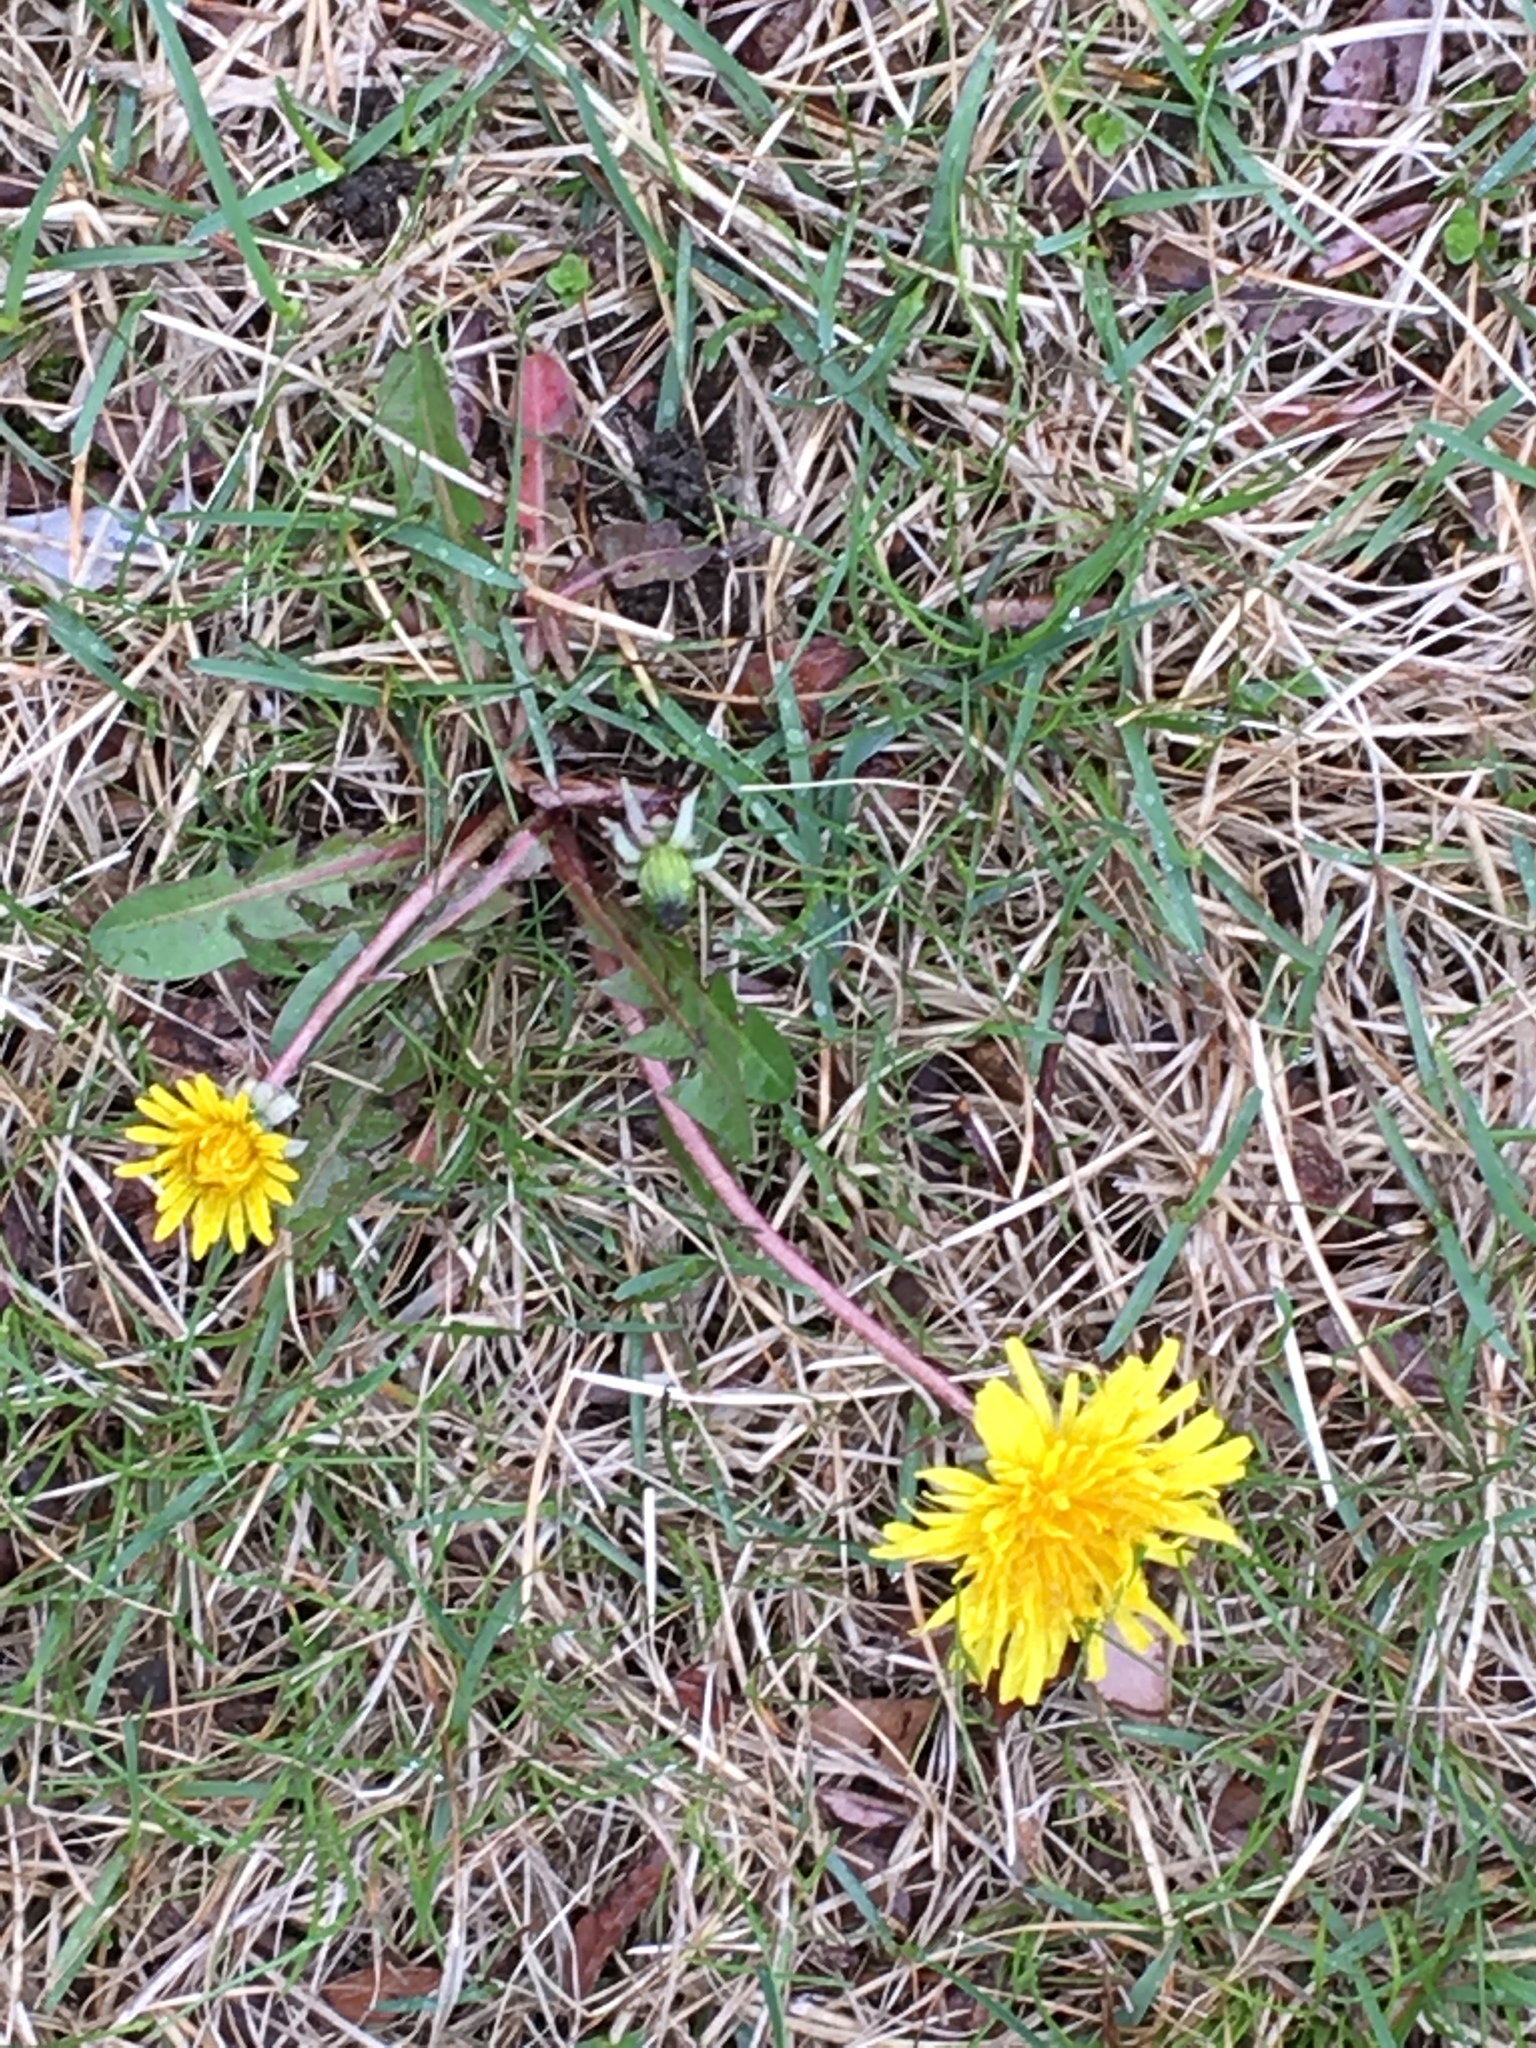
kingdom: Plantae
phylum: Tracheophyta
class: Magnoliopsida
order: Asterales
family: Asteraceae
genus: Taraxacum
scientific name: Taraxacum officinale
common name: Common dandelion
